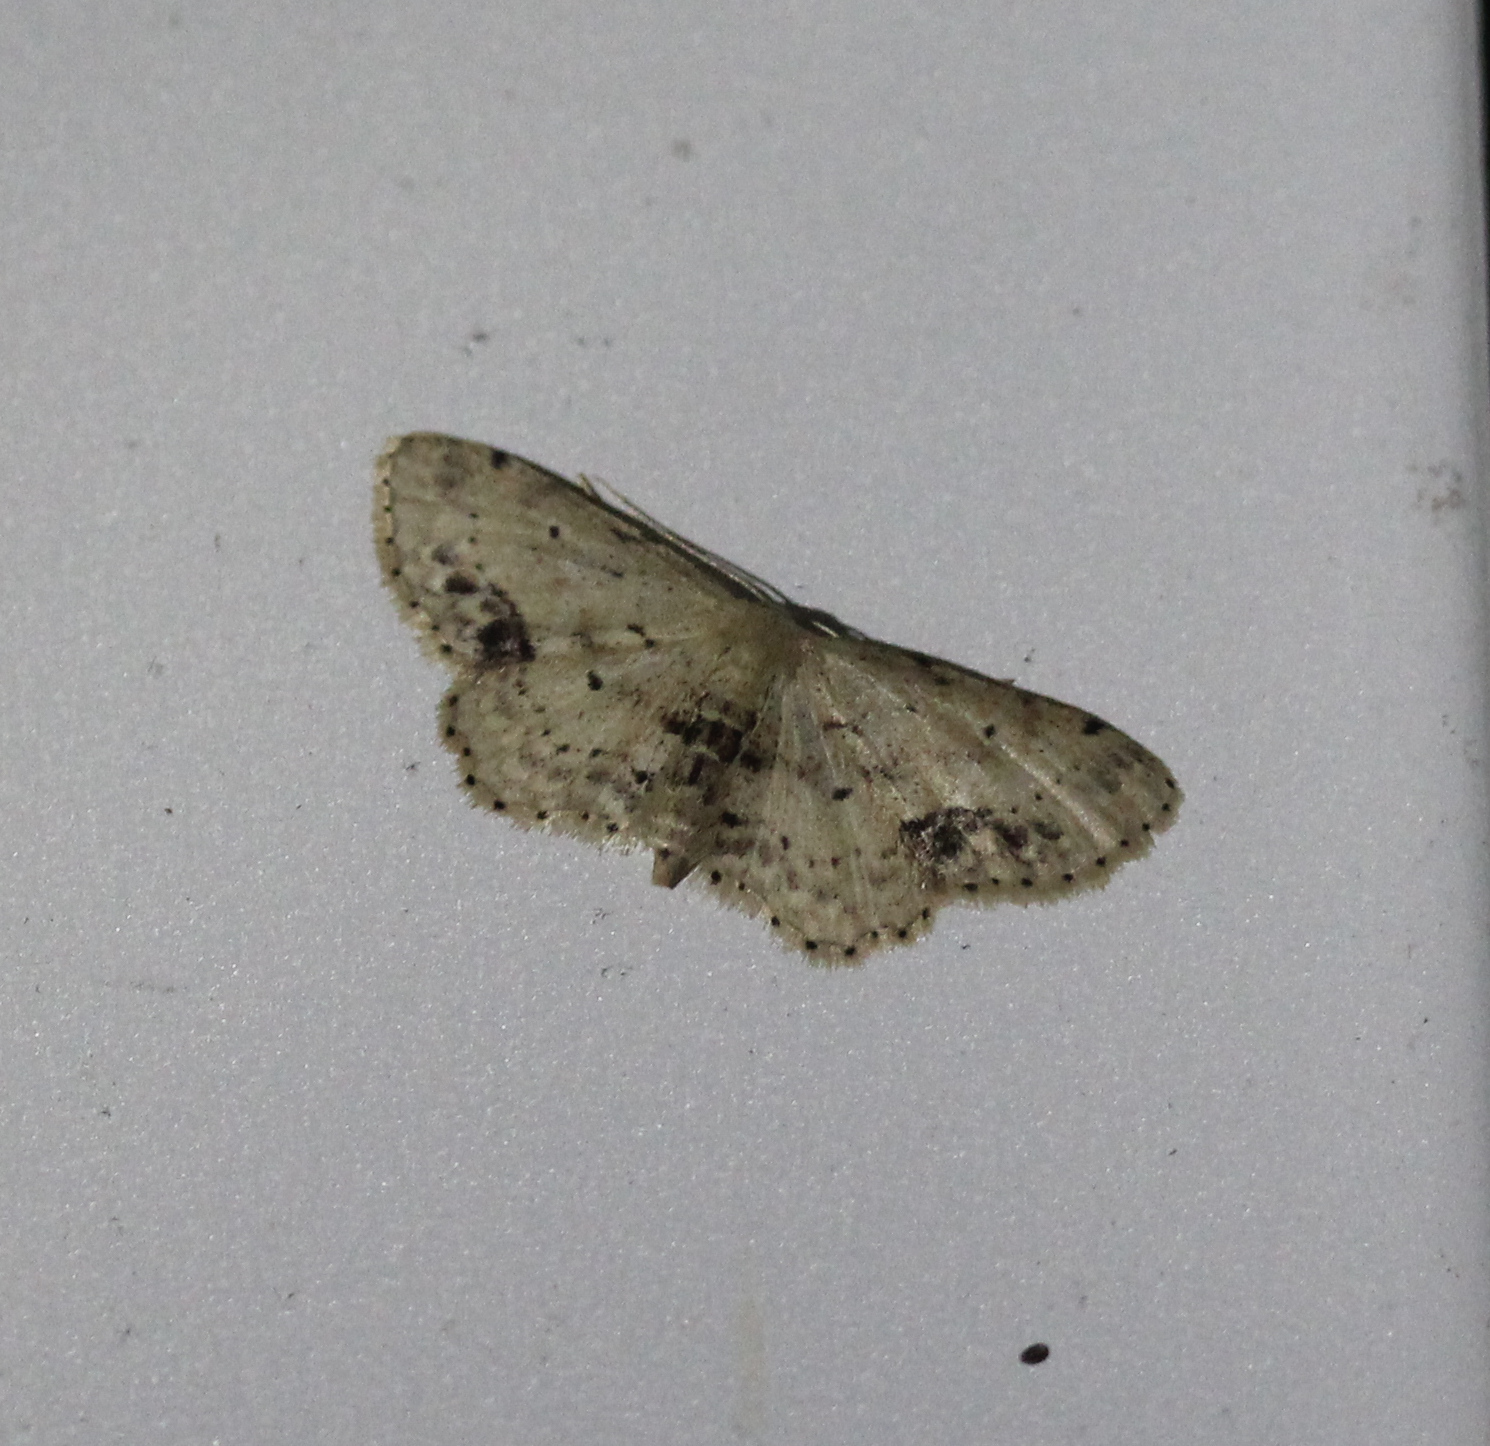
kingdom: Animalia
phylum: Arthropoda
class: Insecta
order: Lepidoptera
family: Geometridae
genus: Idaea
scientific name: Idaea dimidiata
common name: Single-dotted wave
